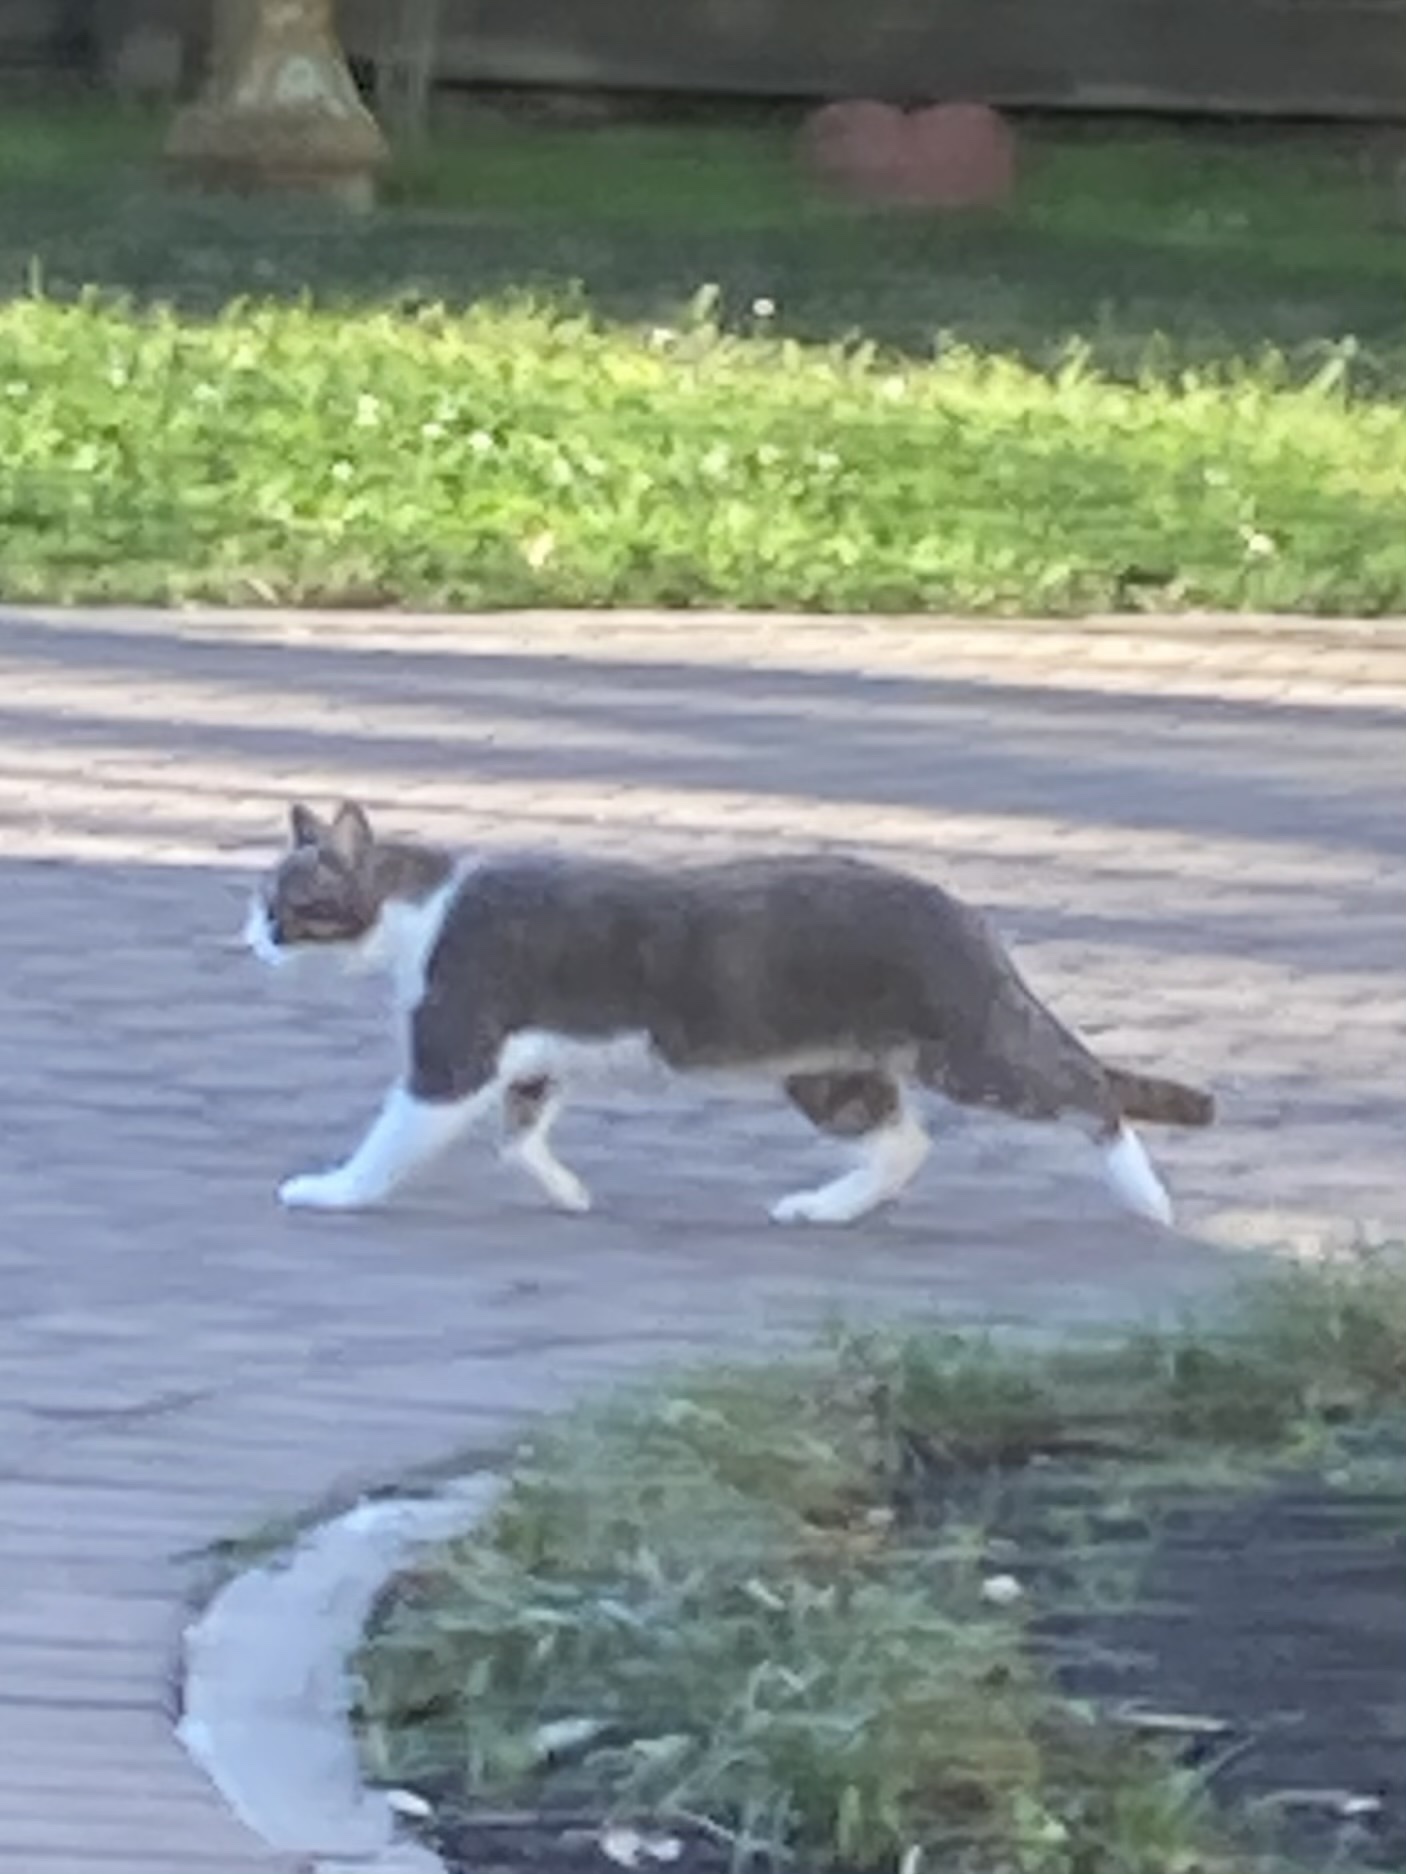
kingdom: Animalia
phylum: Chordata
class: Mammalia
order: Carnivora
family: Felidae
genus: Felis
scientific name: Felis catus
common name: Domestic cat
